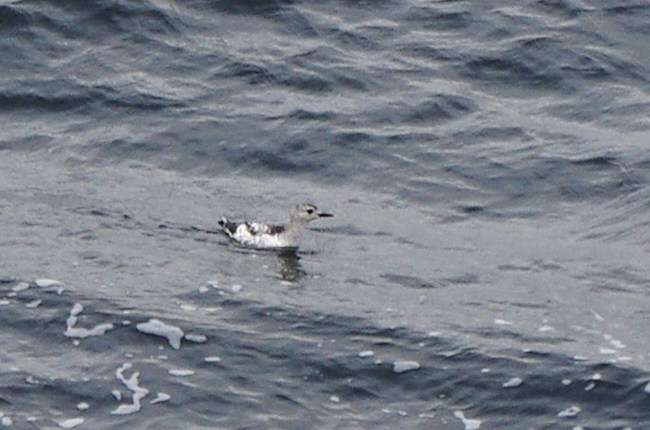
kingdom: Animalia
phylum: Chordata
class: Aves
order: Charadriiformes
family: Alcidae
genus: Cepphus
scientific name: Cepphus grylle
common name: Black guillemot
